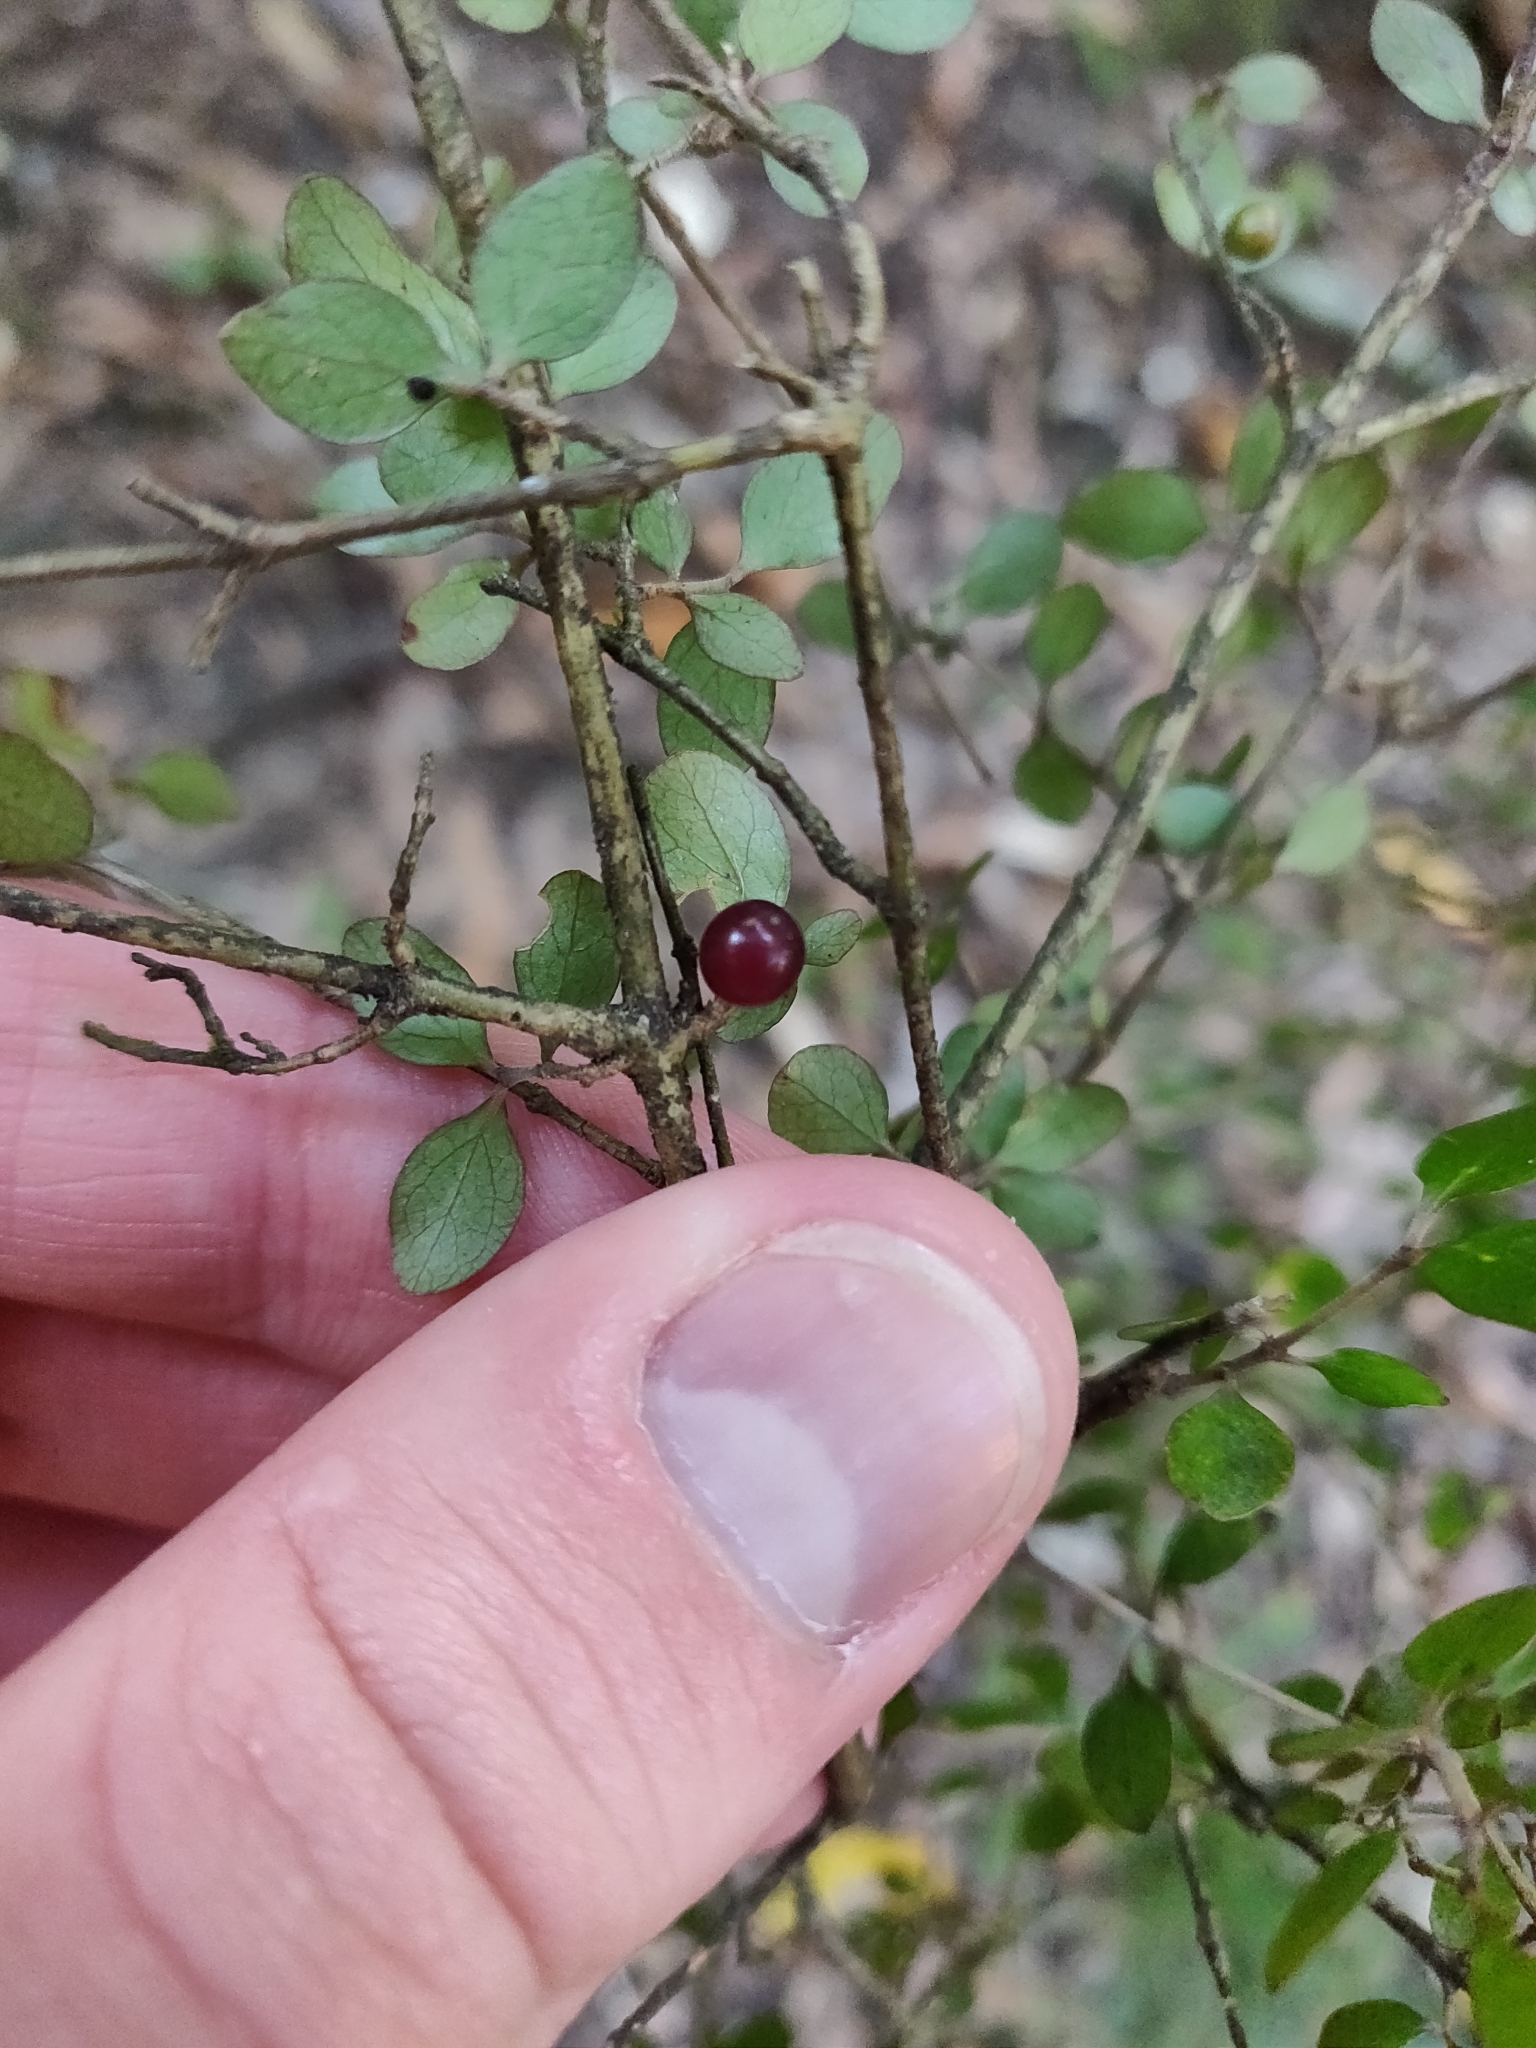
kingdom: Plantae
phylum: Tracheophyta
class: Magnoliopsida
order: Gentianales
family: Rubiaceae
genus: Coprosma
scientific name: Coprosma rhamnoides
